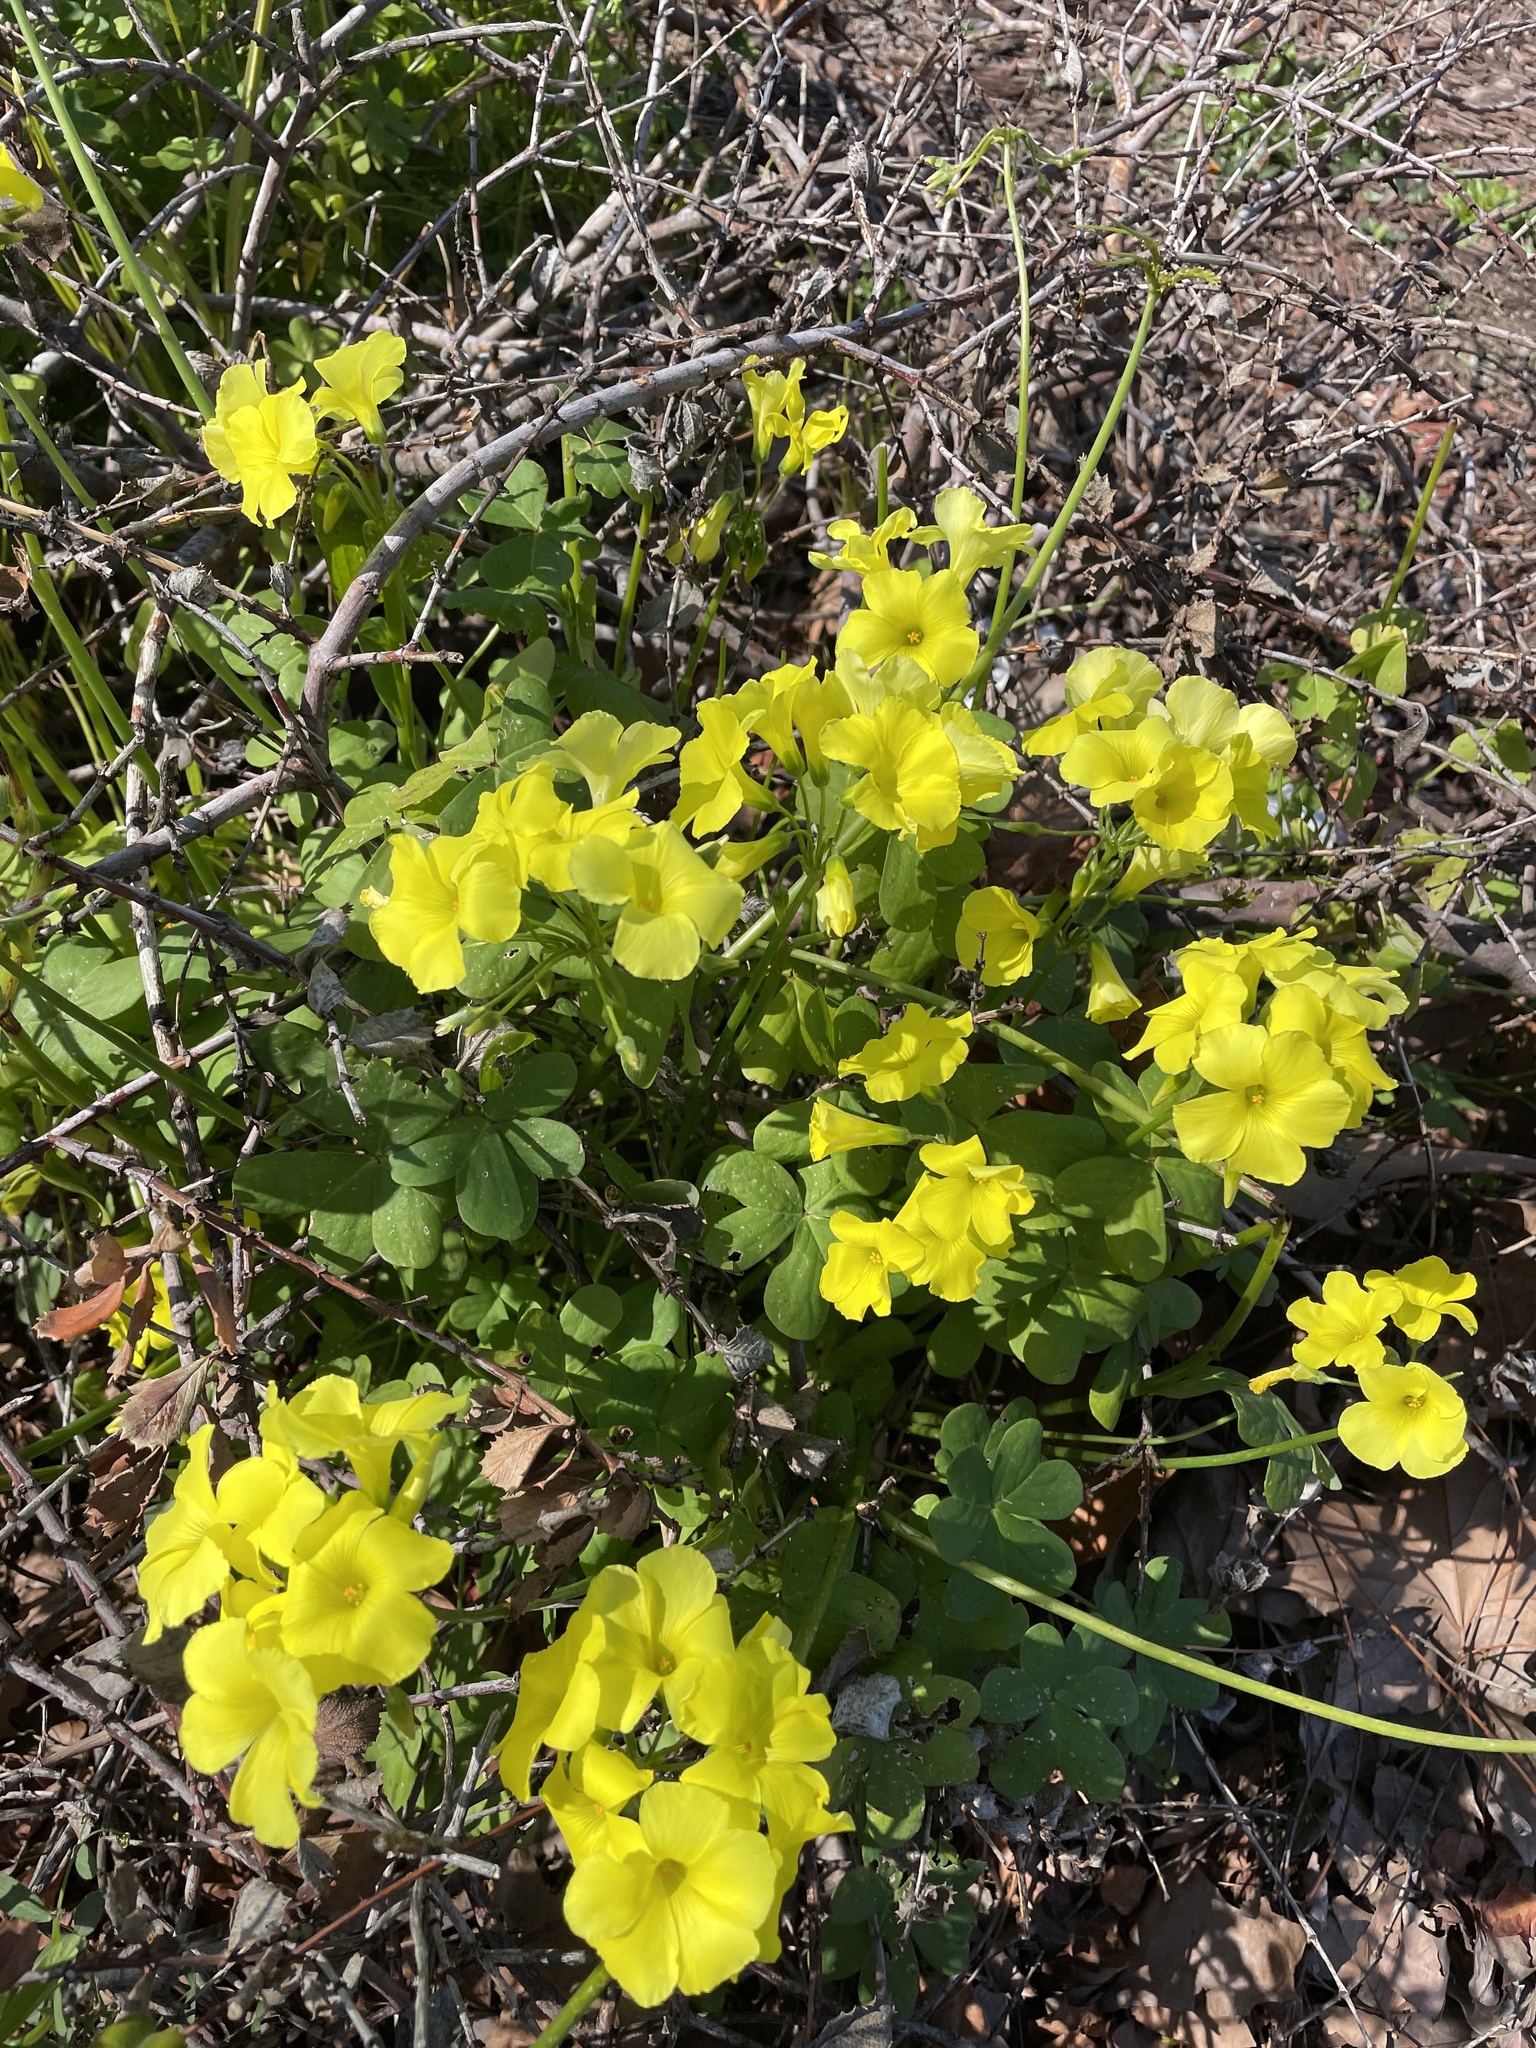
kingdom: Plantae
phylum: Tracheophyta
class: Magnoliopsida
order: Oxalidales
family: Oxalidaceae
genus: Oxalis
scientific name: Oxalis pes-caprae
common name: Bermuda-buttercup
